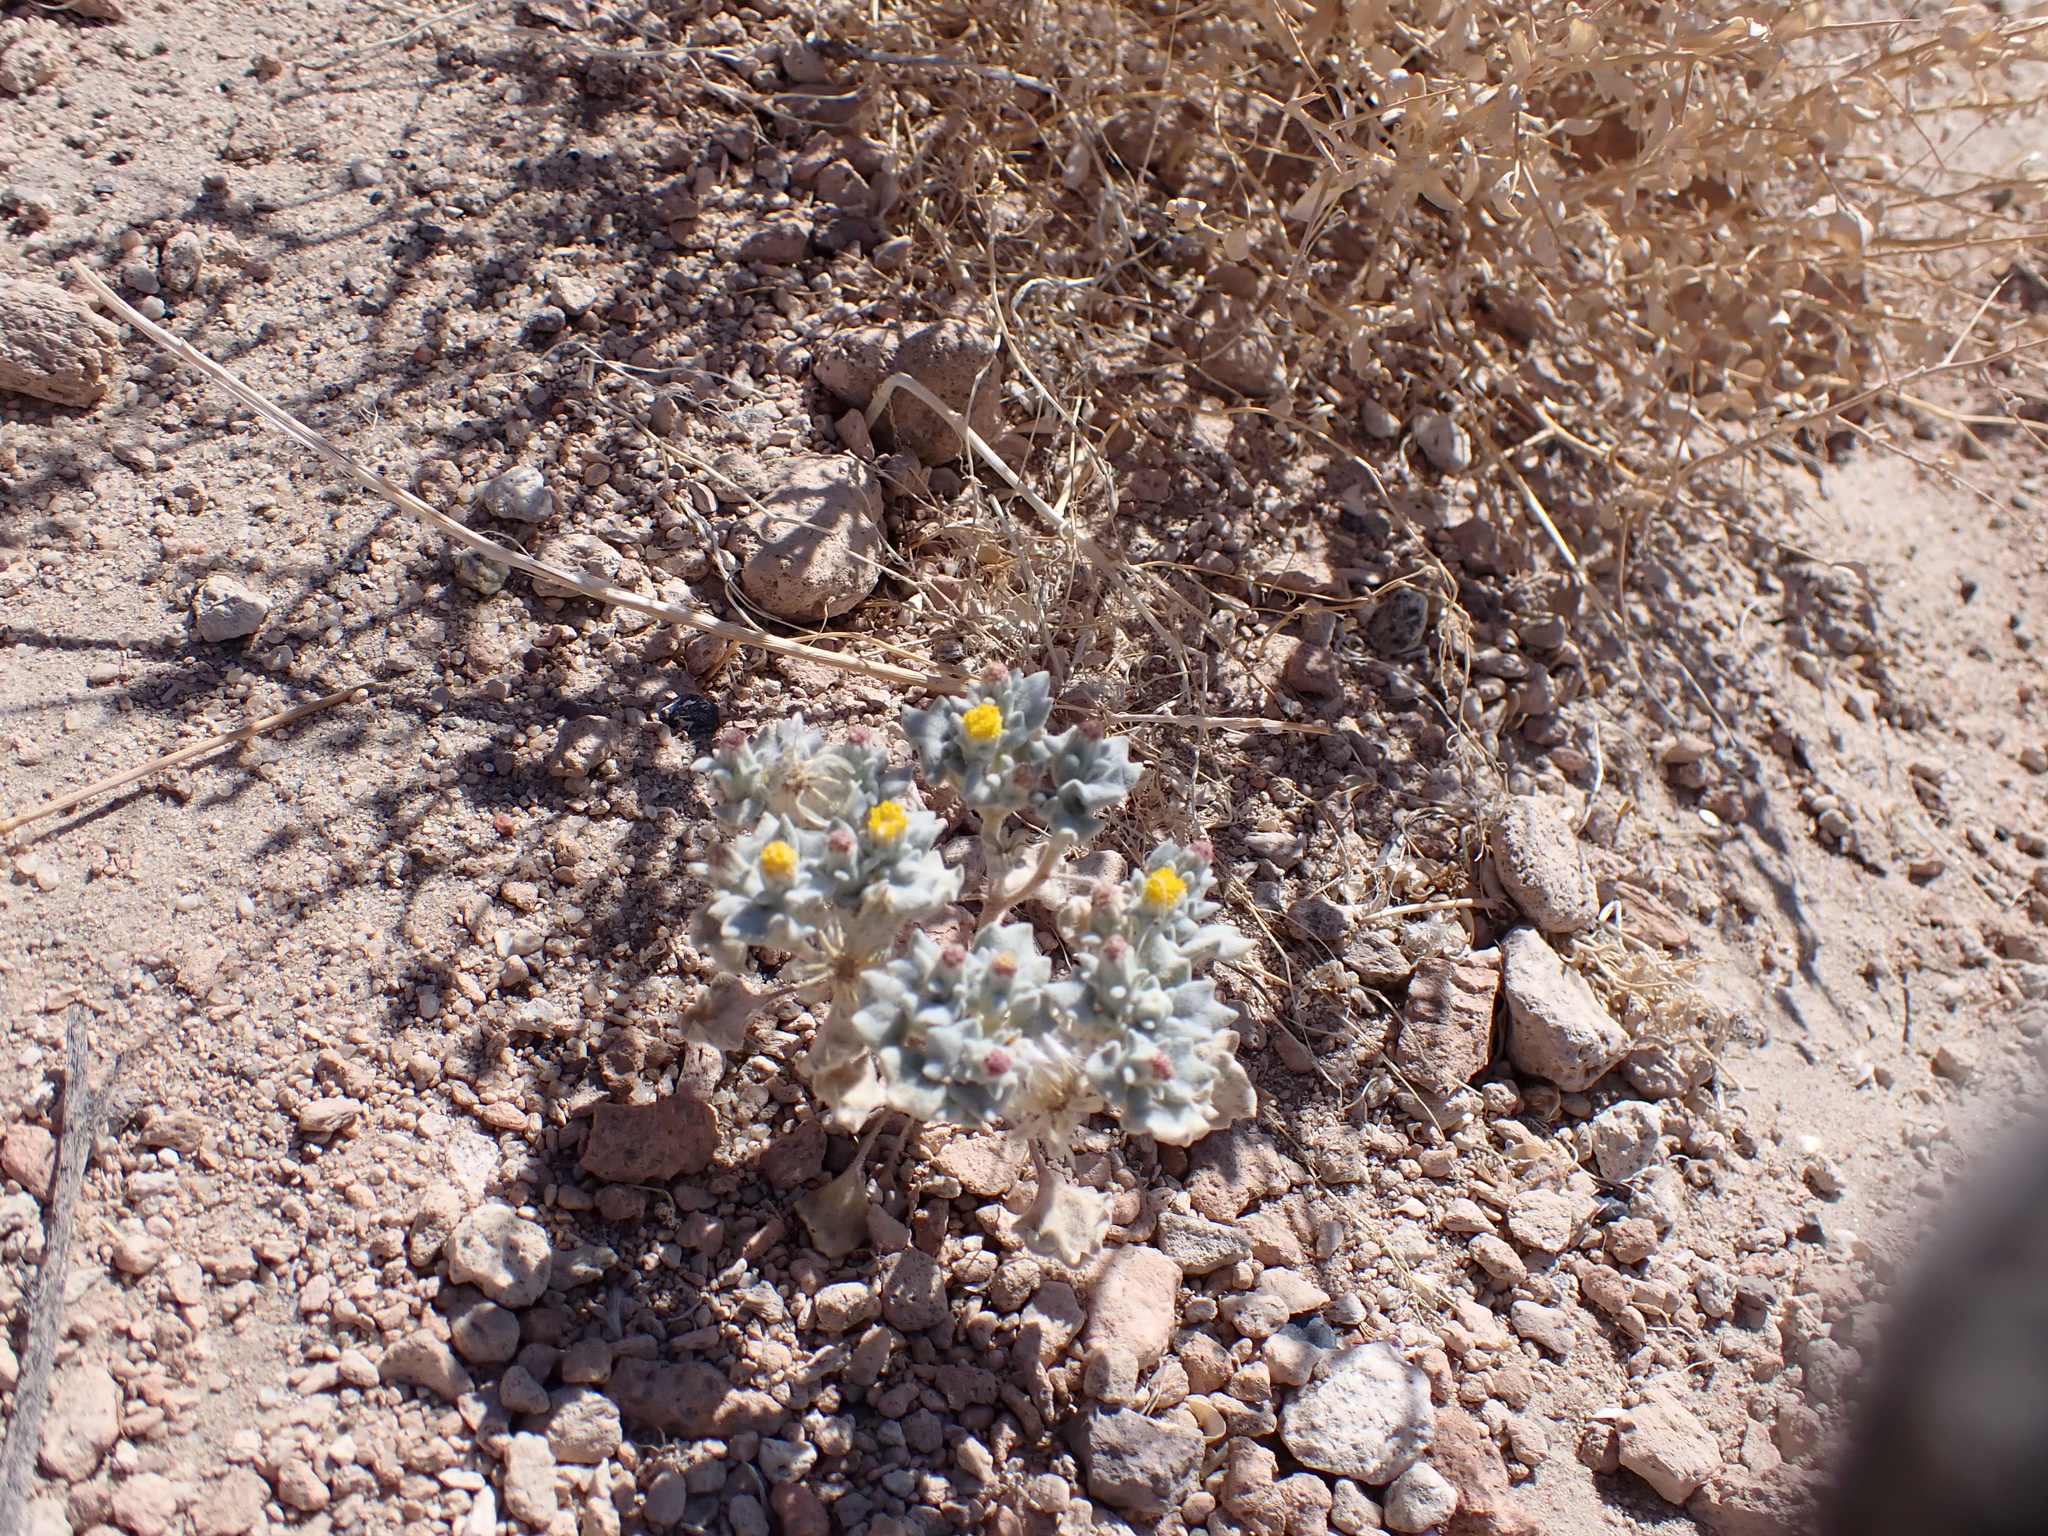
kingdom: Plantae
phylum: Tracheophyta
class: Magnoliopsida
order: Asterales
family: Asteraceae
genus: Psathyrotes
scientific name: Psathyrotes annua
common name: Mealy rosettes
